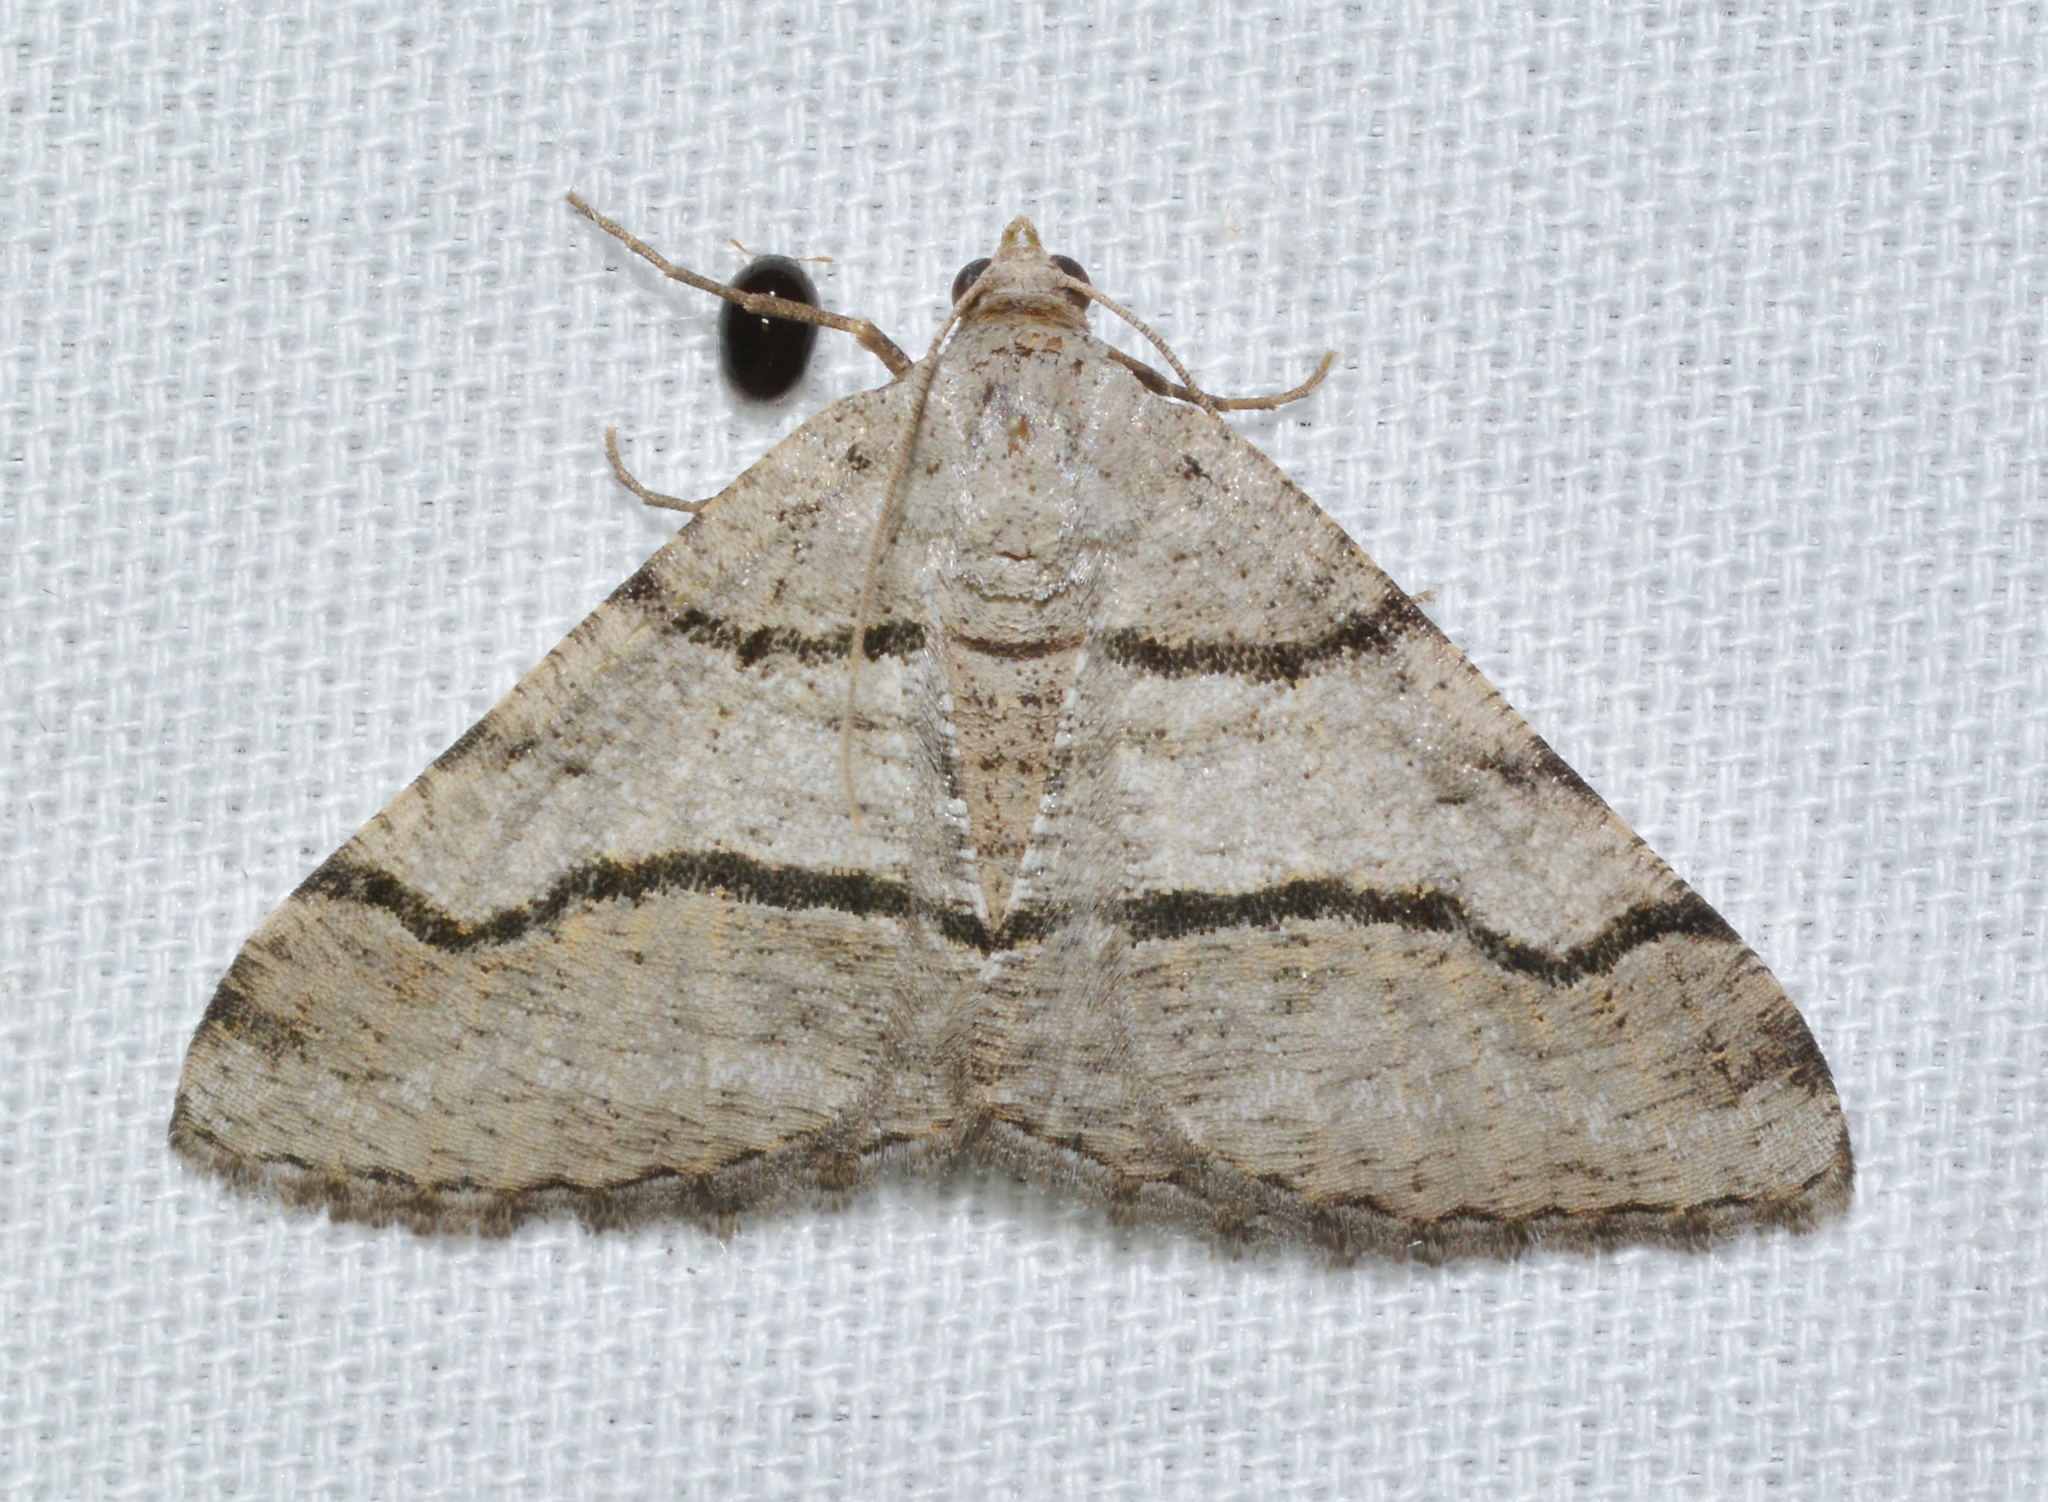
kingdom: Animalia
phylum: Arthropoda
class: Insecta
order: Lepidoptera
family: Geometridae
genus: Digrammia
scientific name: Digrammia continuata
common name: Curve-lined angle
